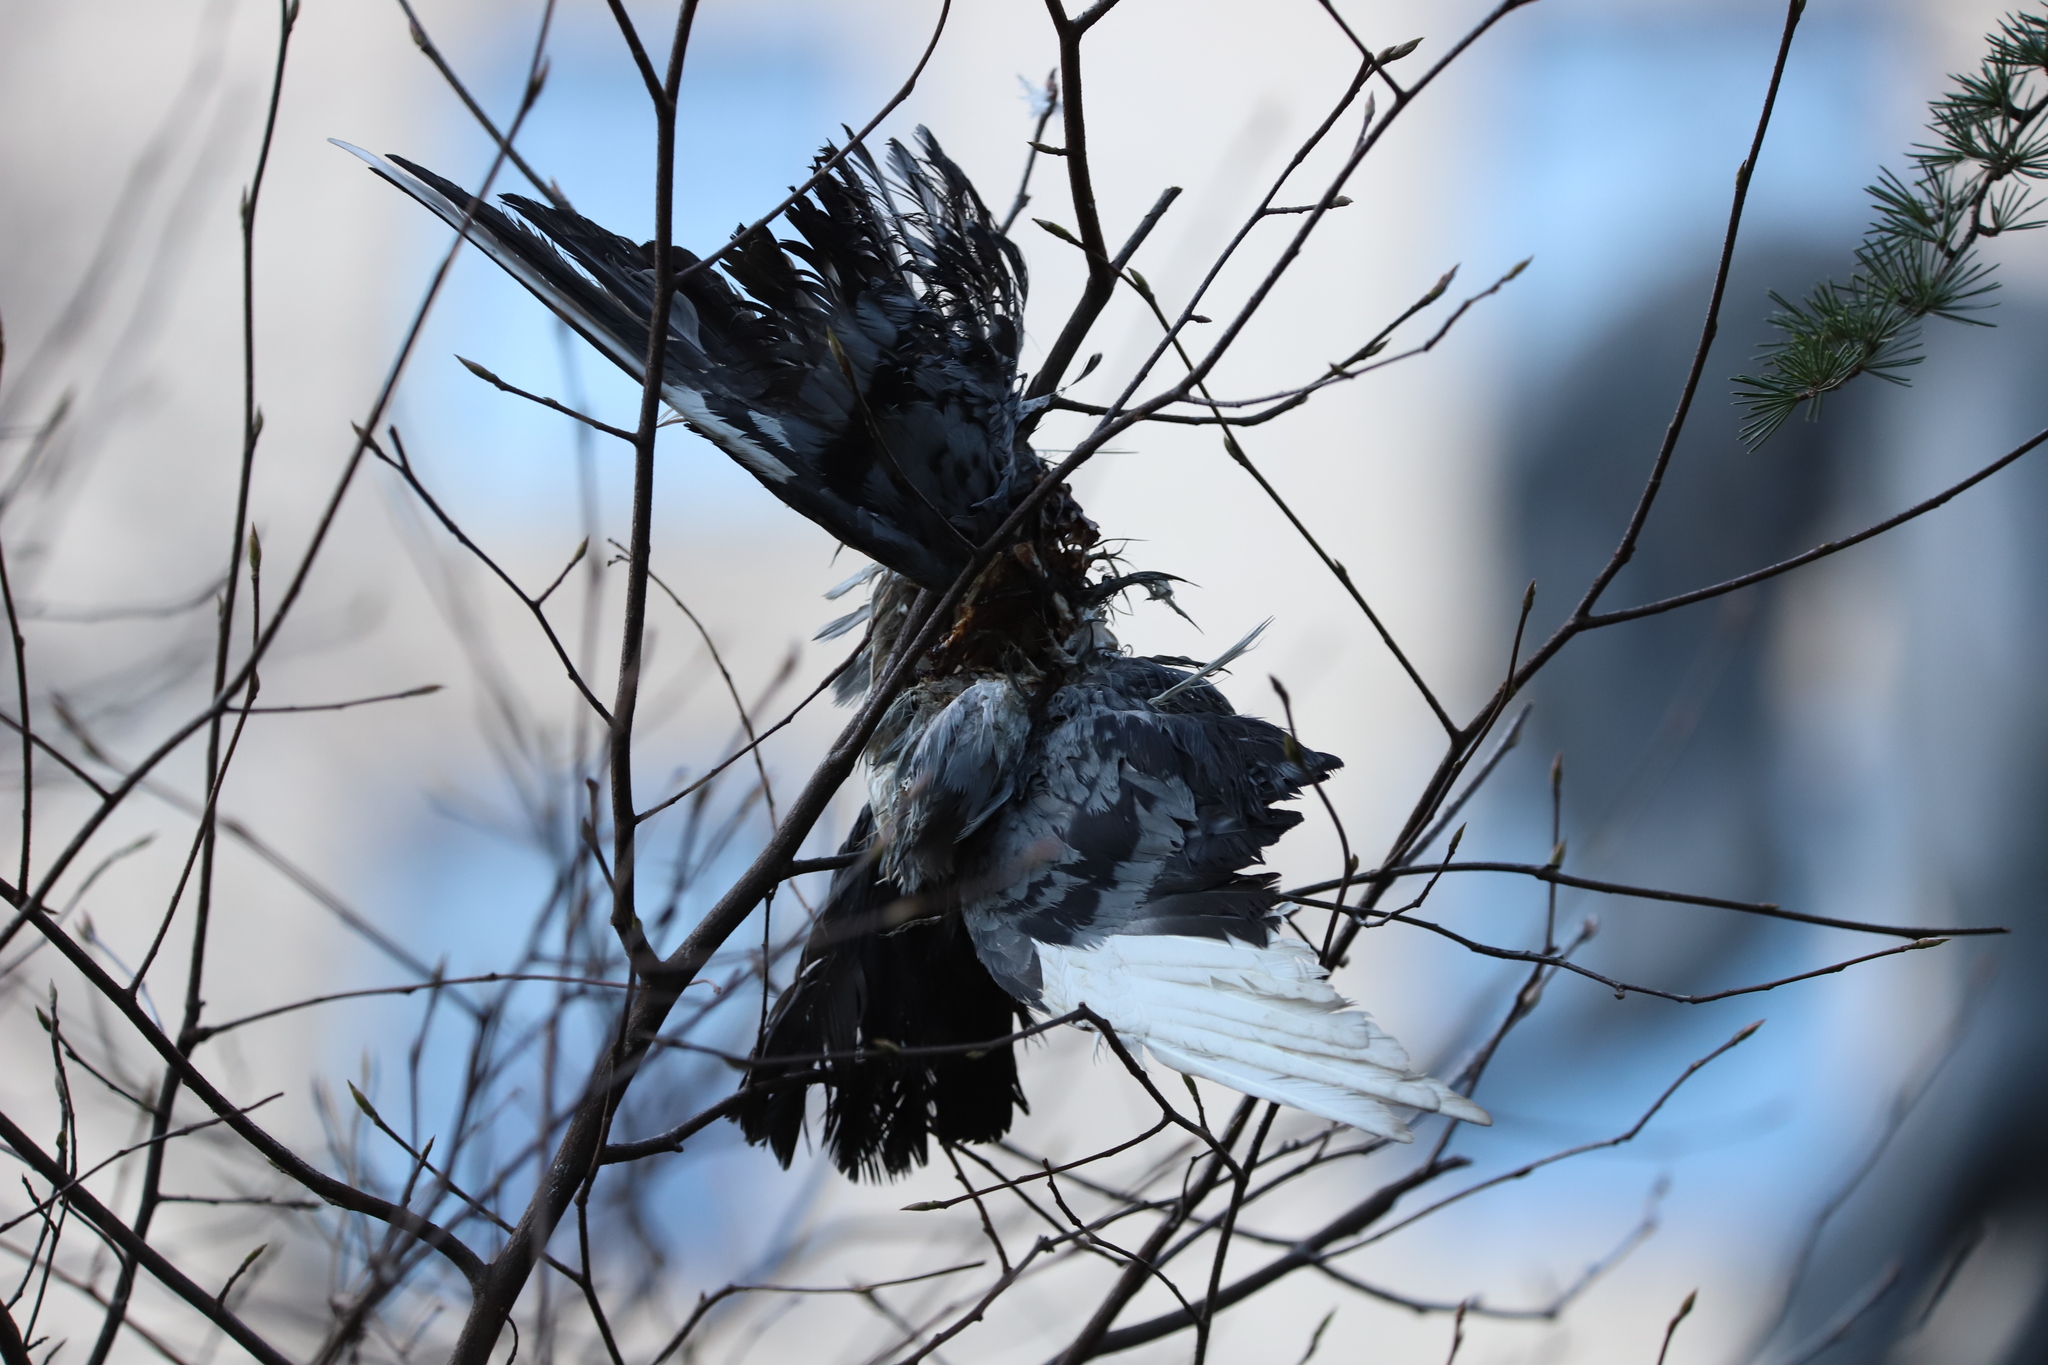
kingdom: Animalia
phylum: Chordata
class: Aves
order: Columbiformes
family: Columbidae
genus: Columba
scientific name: Columba livia
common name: Rock pigeon
